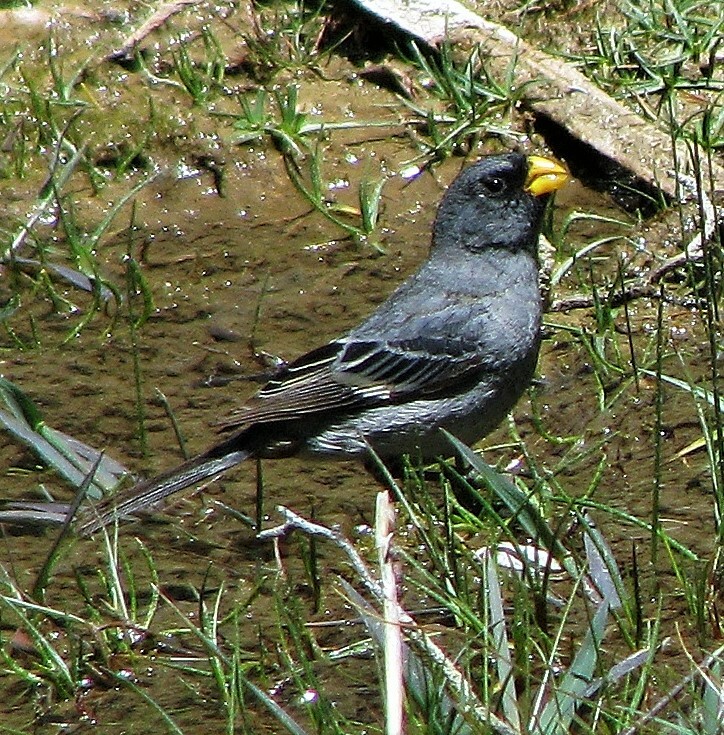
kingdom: Animalia
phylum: Chordata
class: Aves
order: Passeriformes
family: Thraupidae
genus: Catamenia
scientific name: Catamenia analis
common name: Band-tailed seedeater
